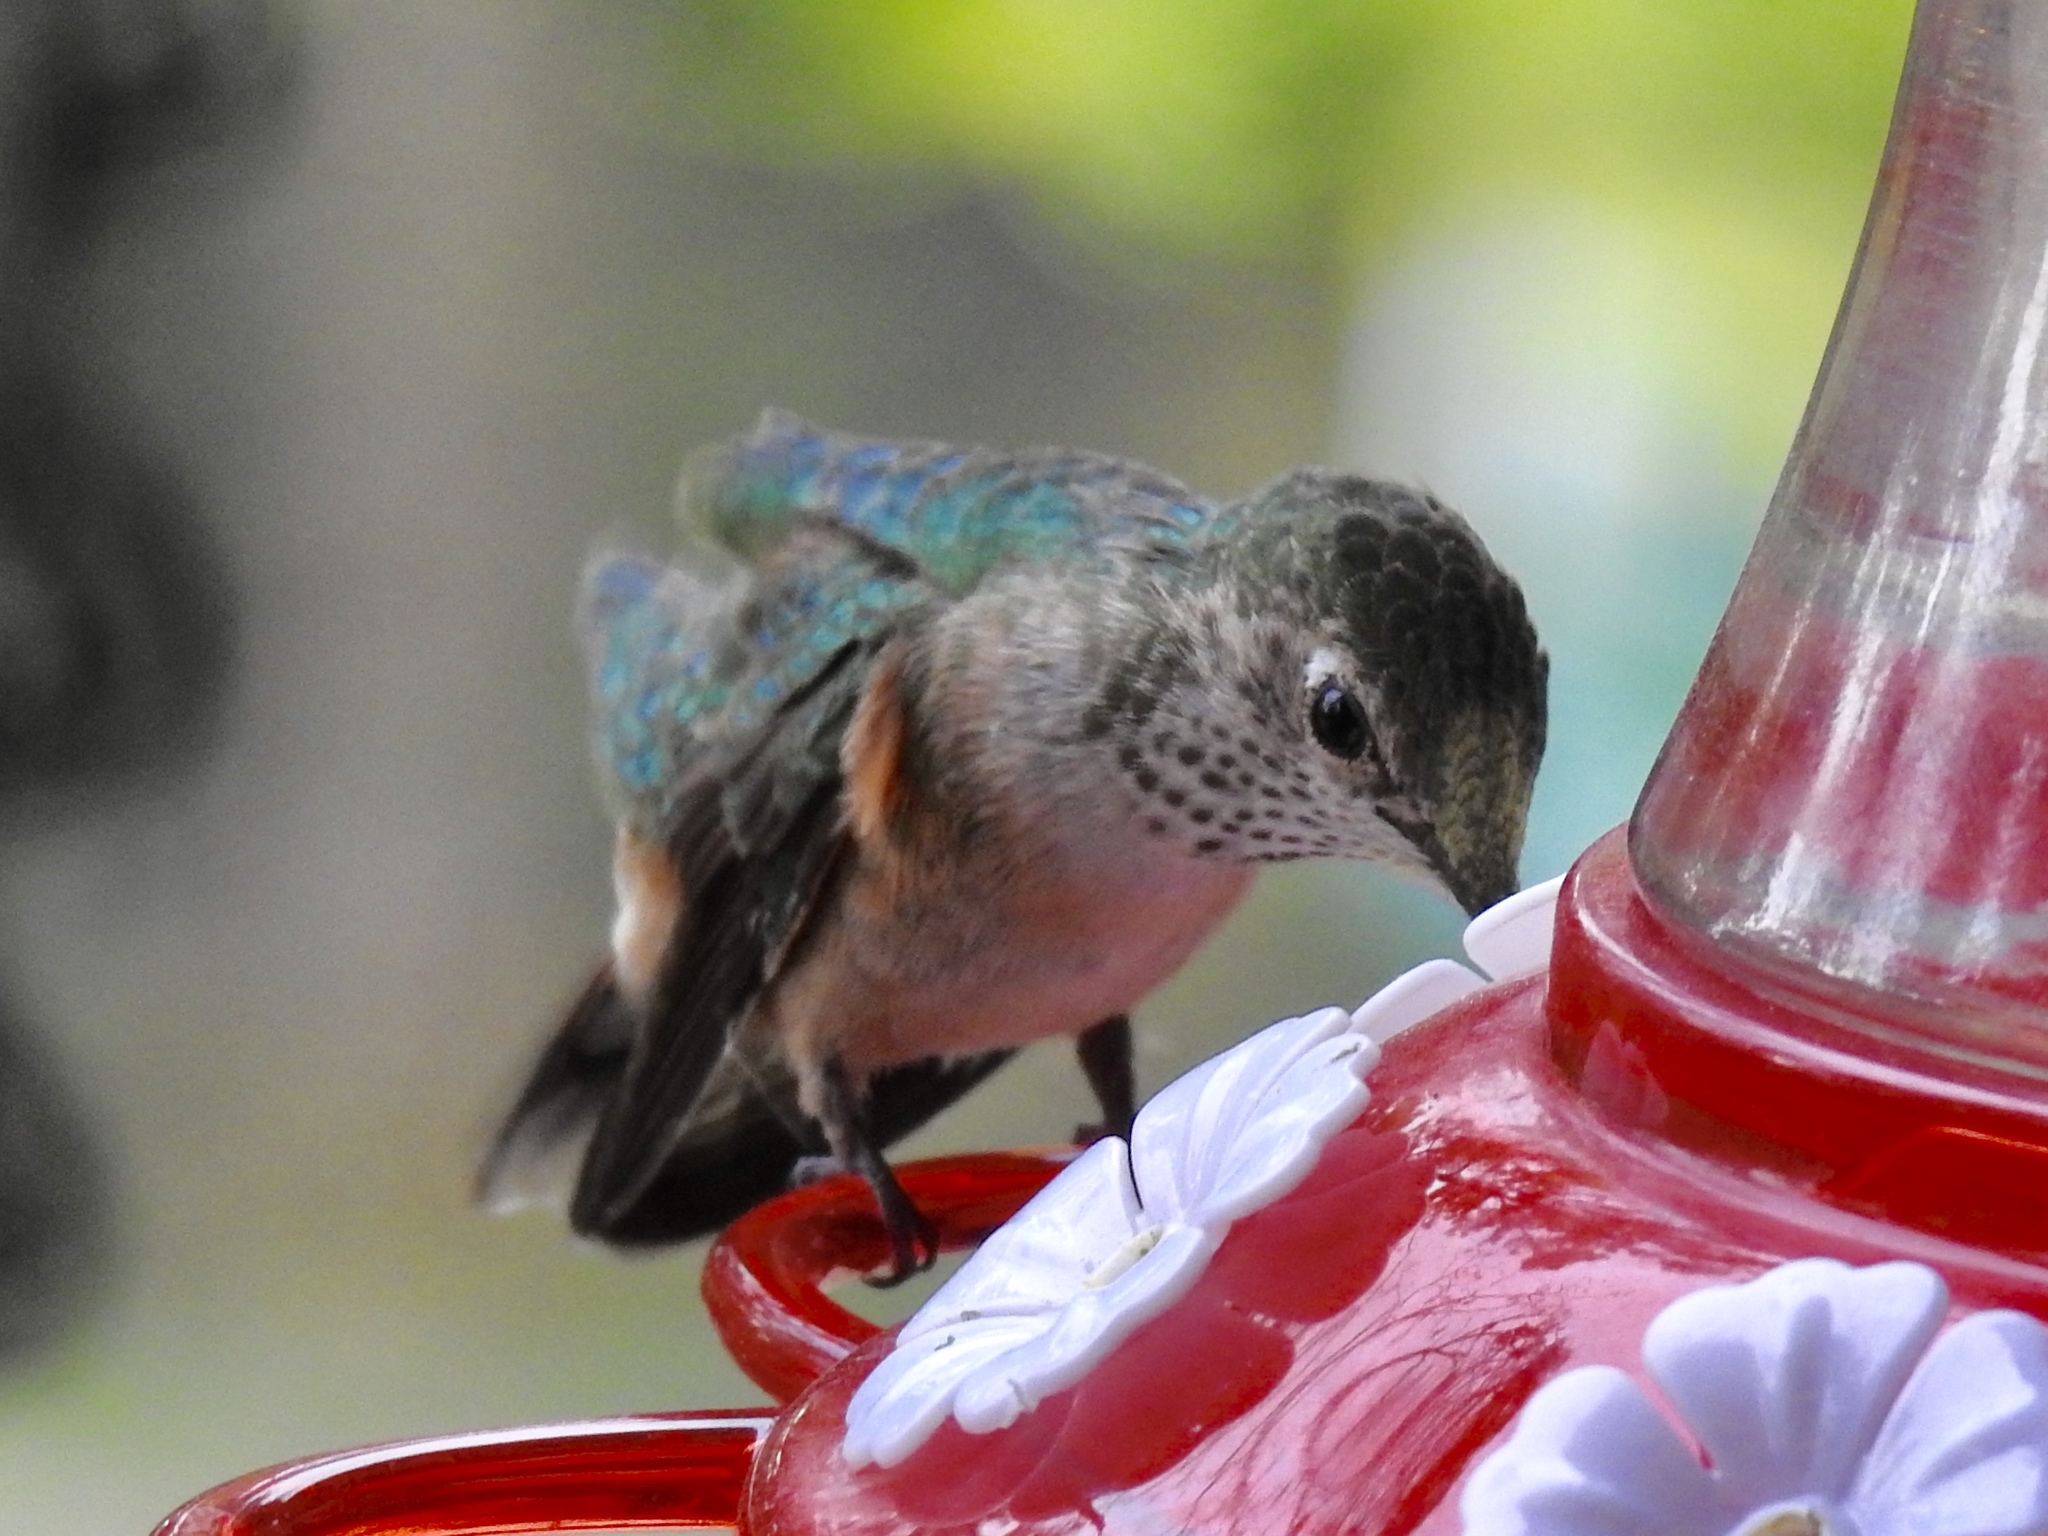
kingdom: Animalia
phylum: Chordata
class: Aves
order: Apodiformes
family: Trochilidae
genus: Selasphorus
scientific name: Selasphorus platycercus
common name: Broad-tailed hummingbird
